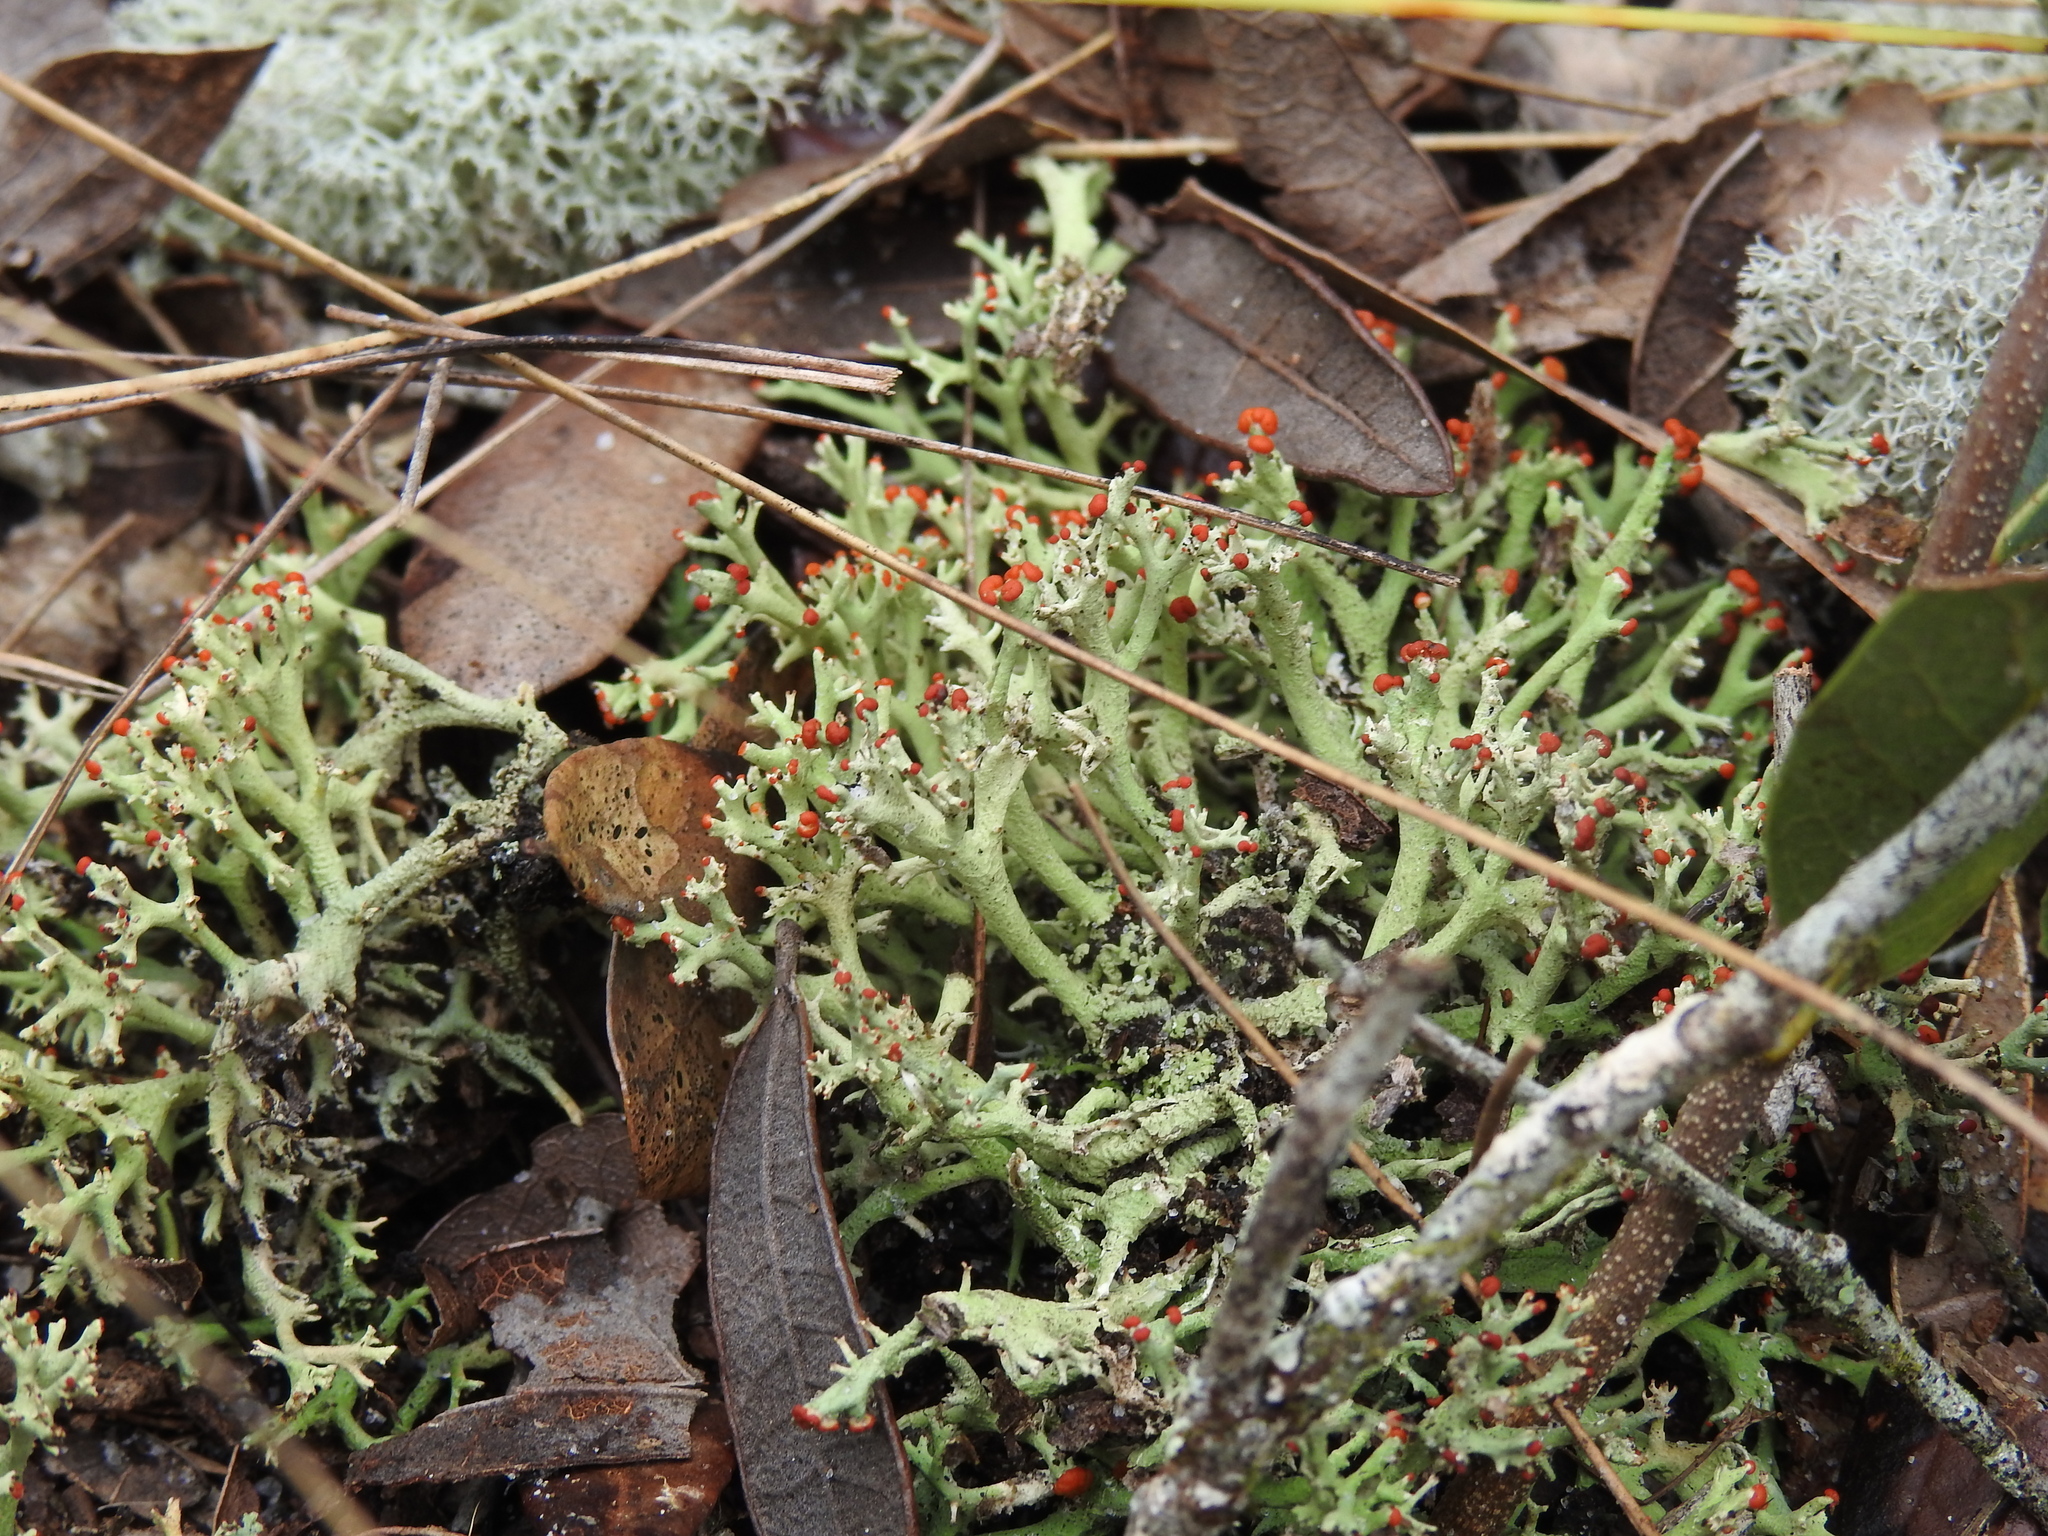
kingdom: Fungi
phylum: Ascomycota
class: Lecanoromycetes
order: Lecanorales
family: Cladoniaceae
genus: Cladonia
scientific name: Cladonia leporina
